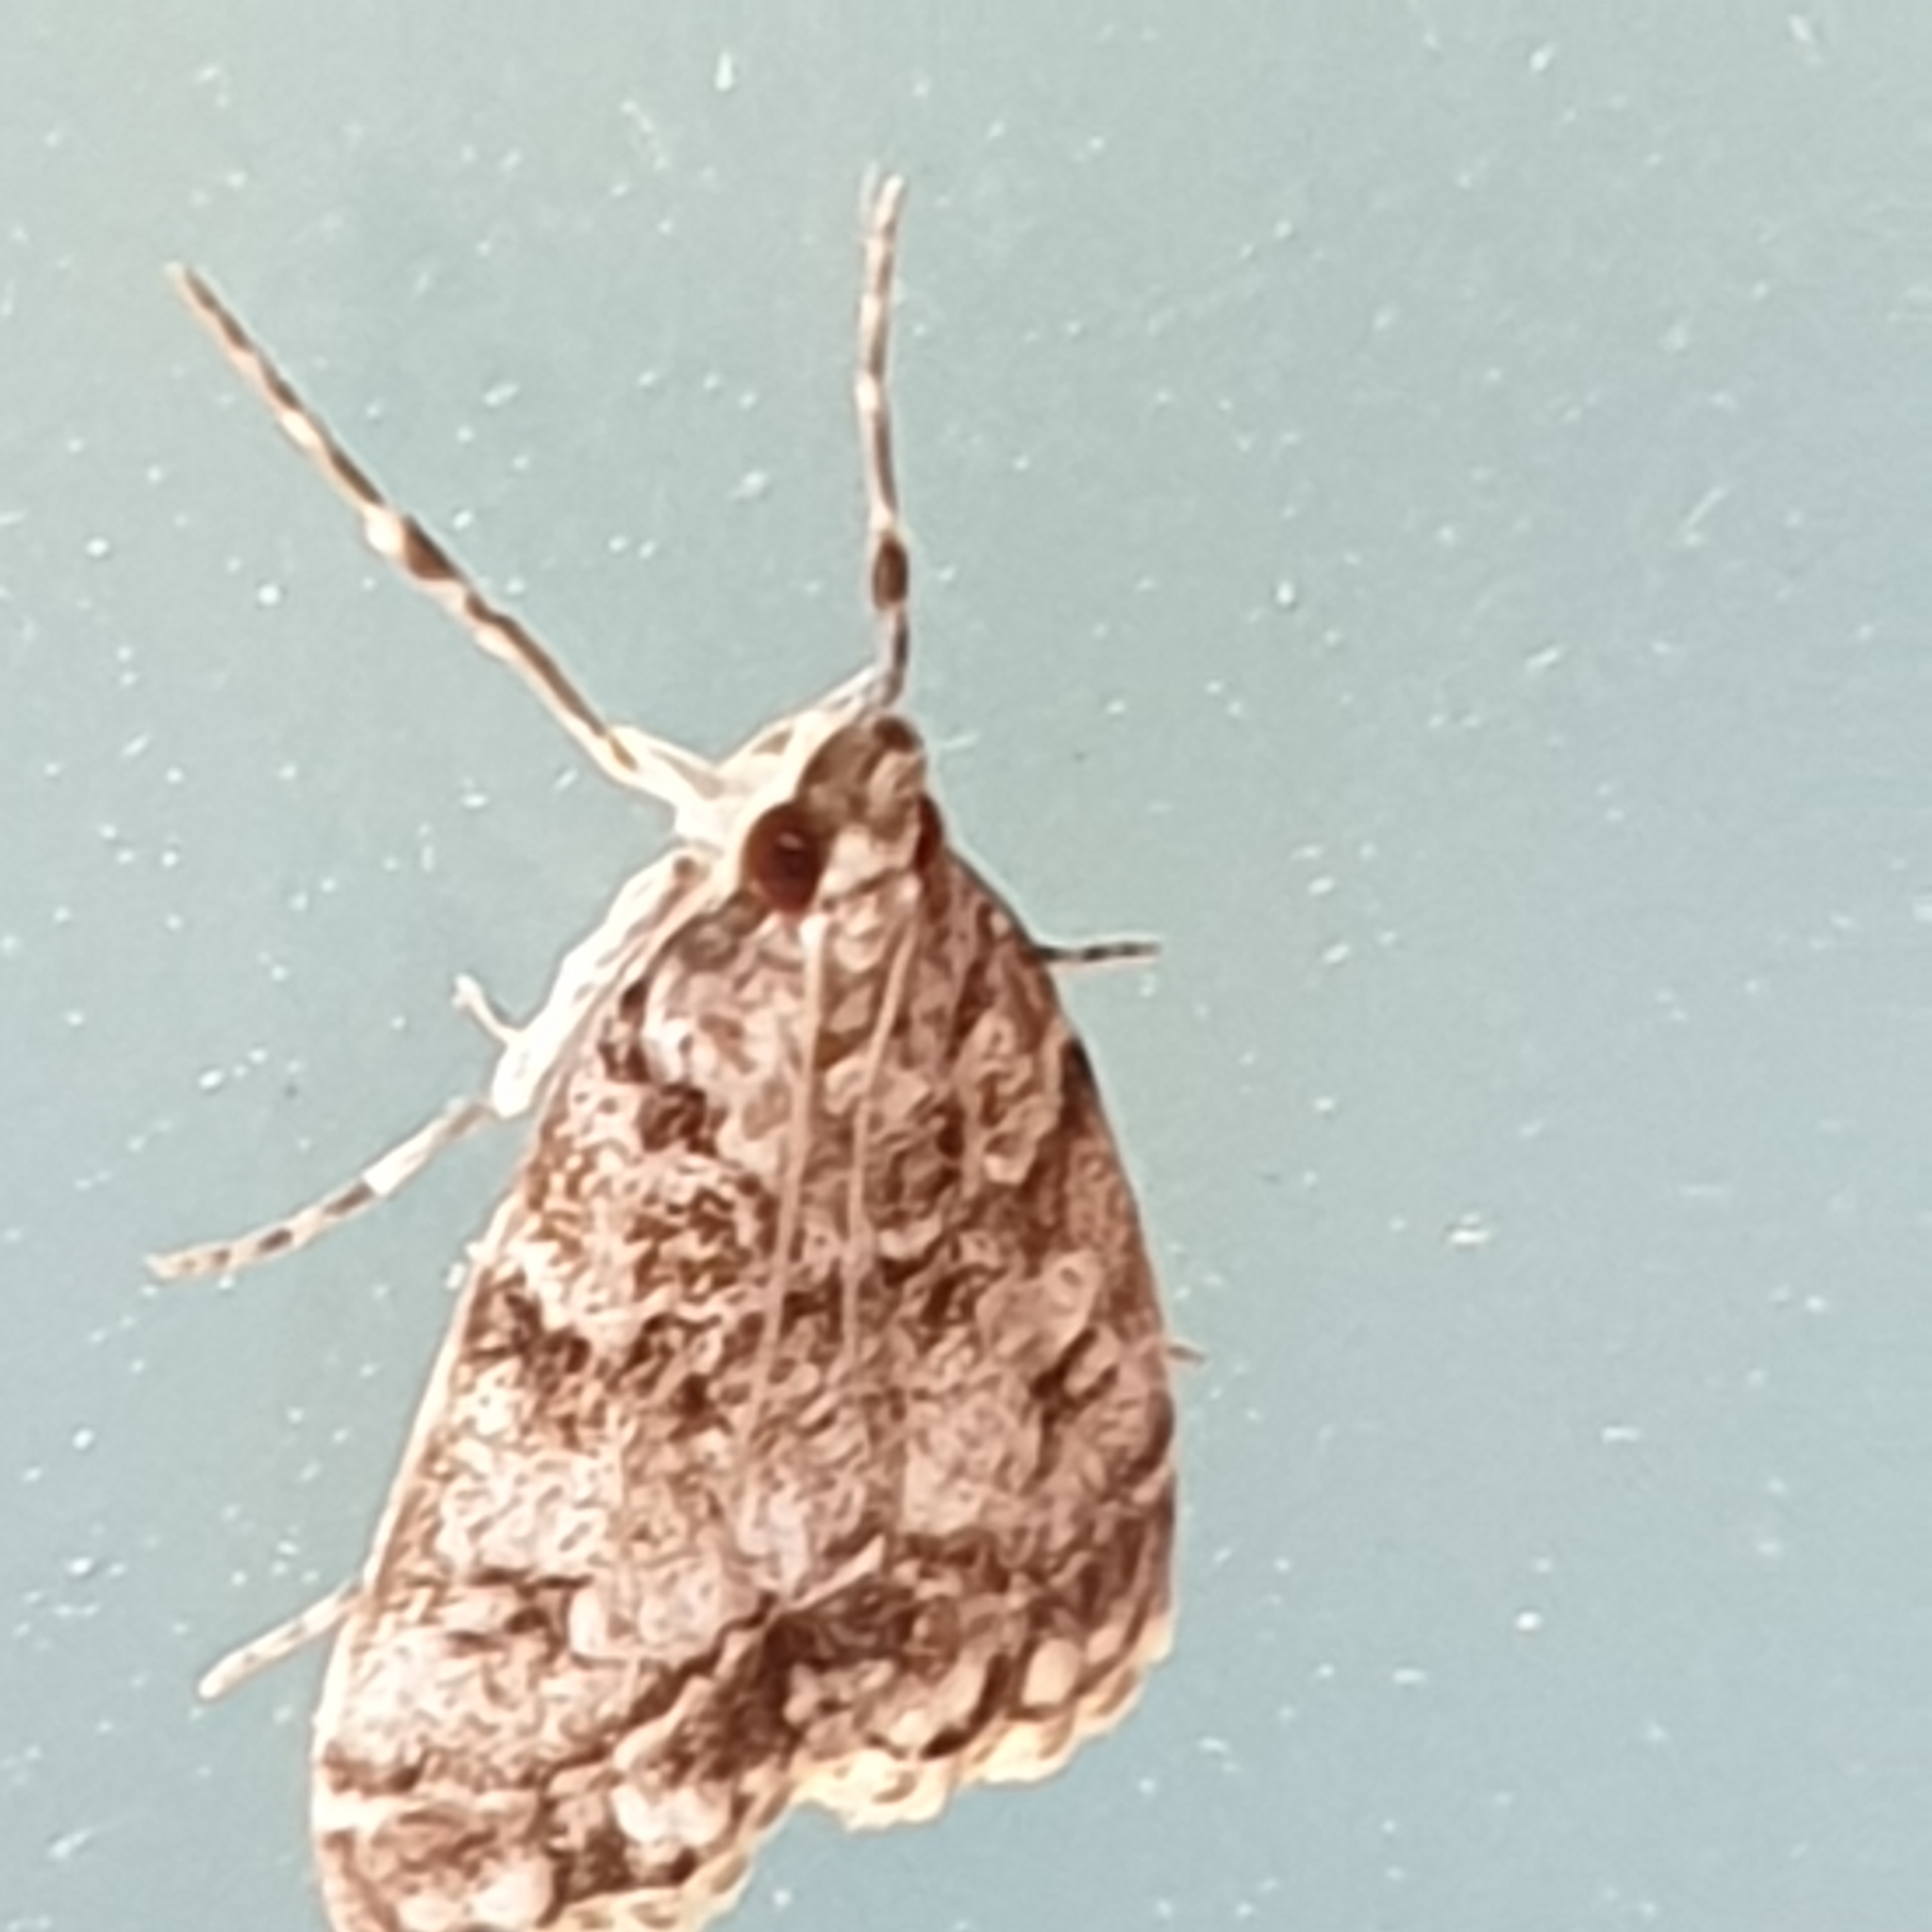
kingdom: Animalia
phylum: Arthropoda
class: Insecta
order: Lepidoptera
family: Crambidae
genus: Eudonia
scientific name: Eudonia lacustrata
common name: Little grey
